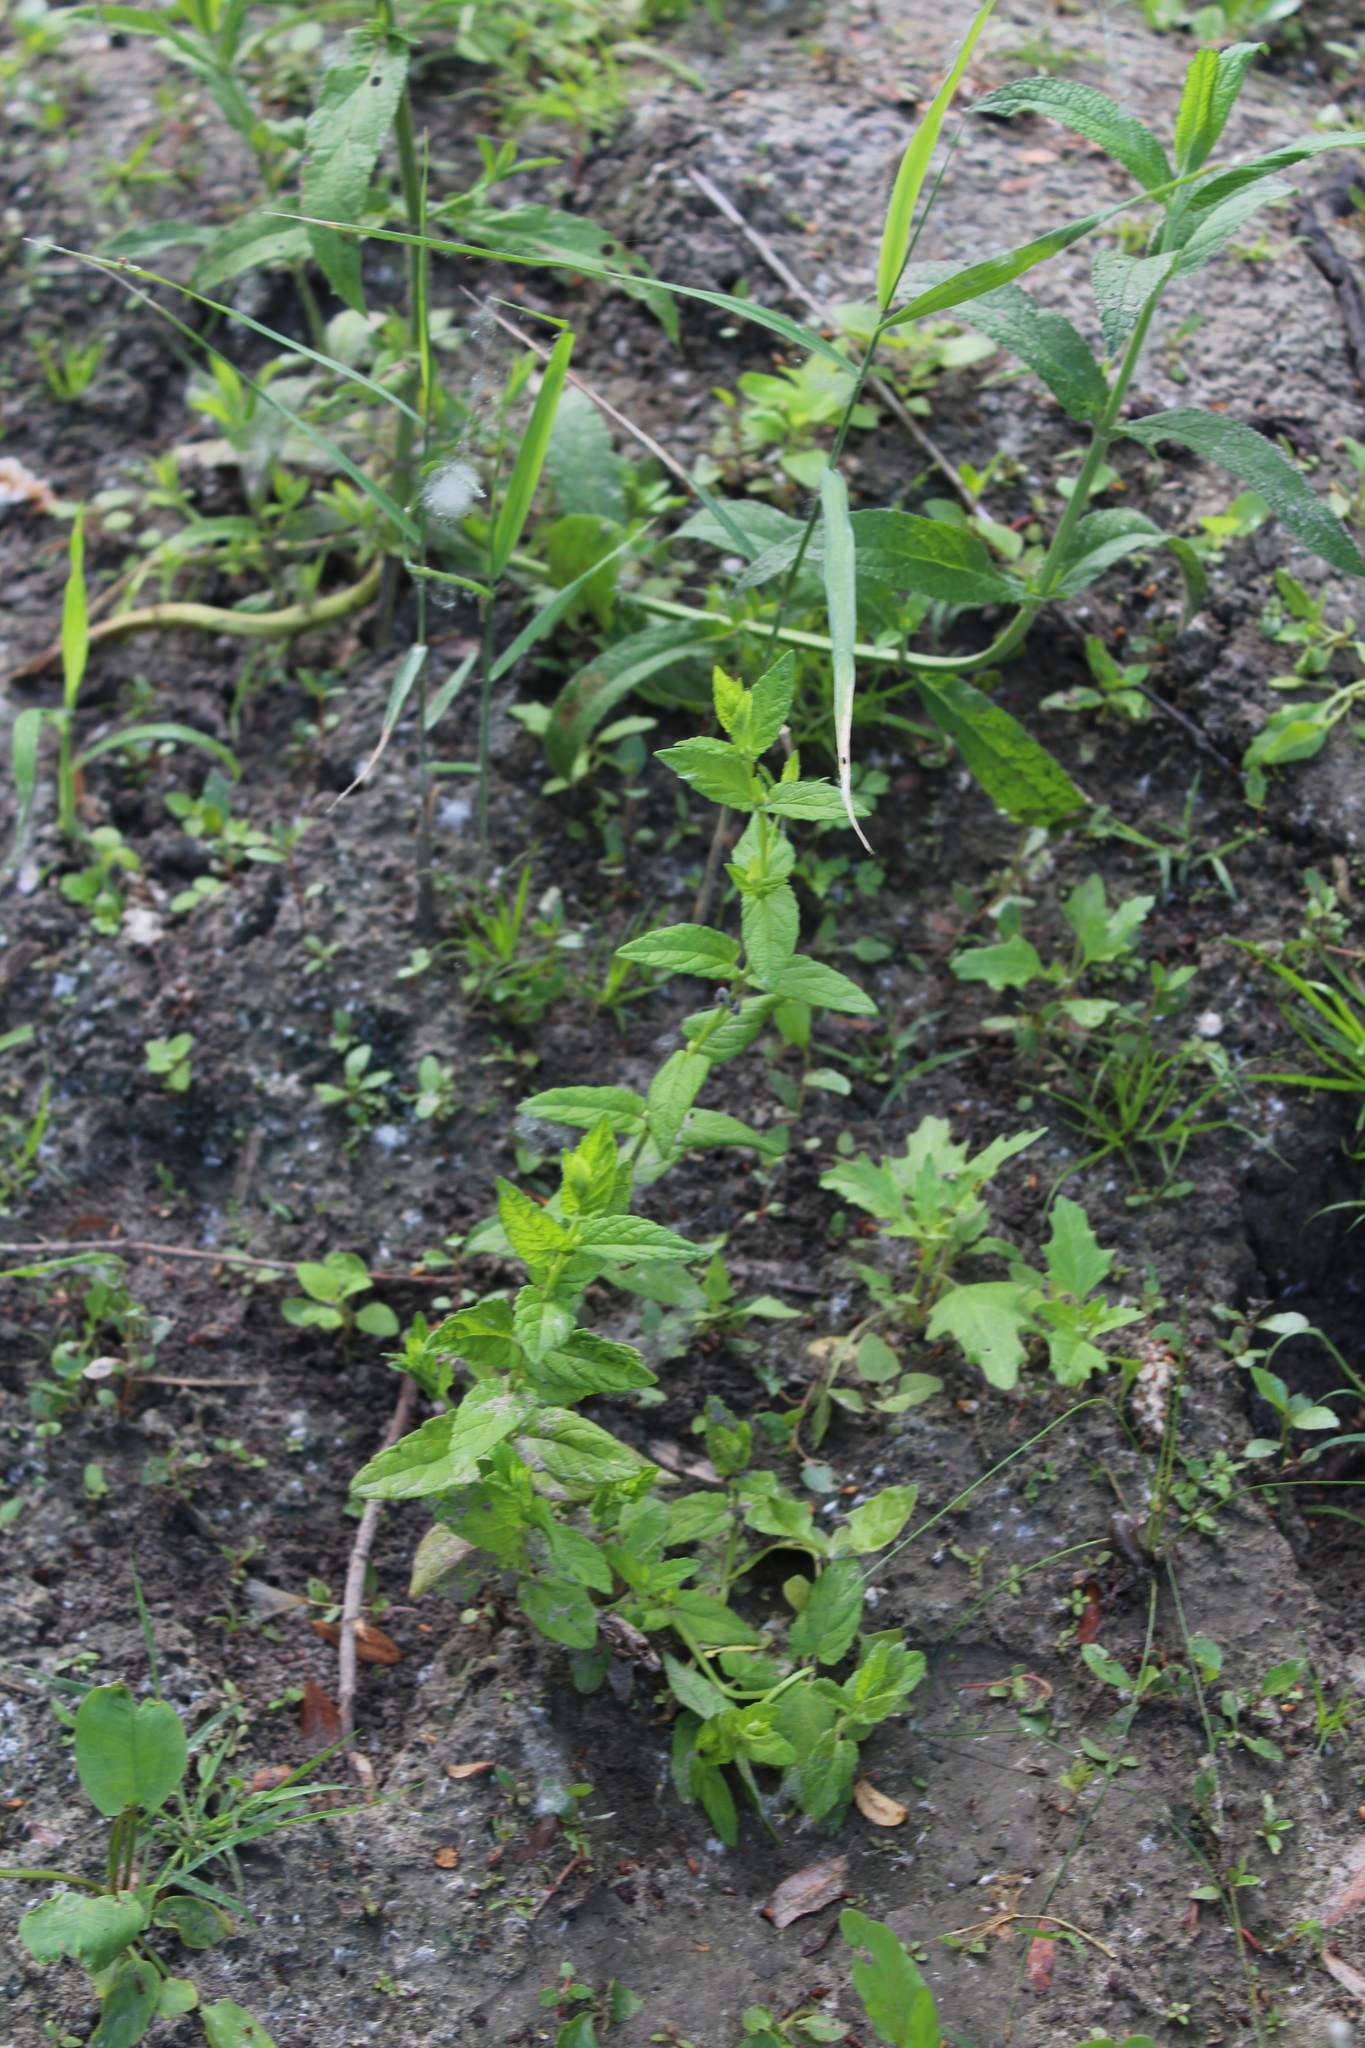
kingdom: Plantae
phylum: Tracheophyta
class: Magnoliopsida
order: Lamiales
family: Lamiaceae
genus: Scutellaria
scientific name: Scutellaria galericulata
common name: Skullcap
